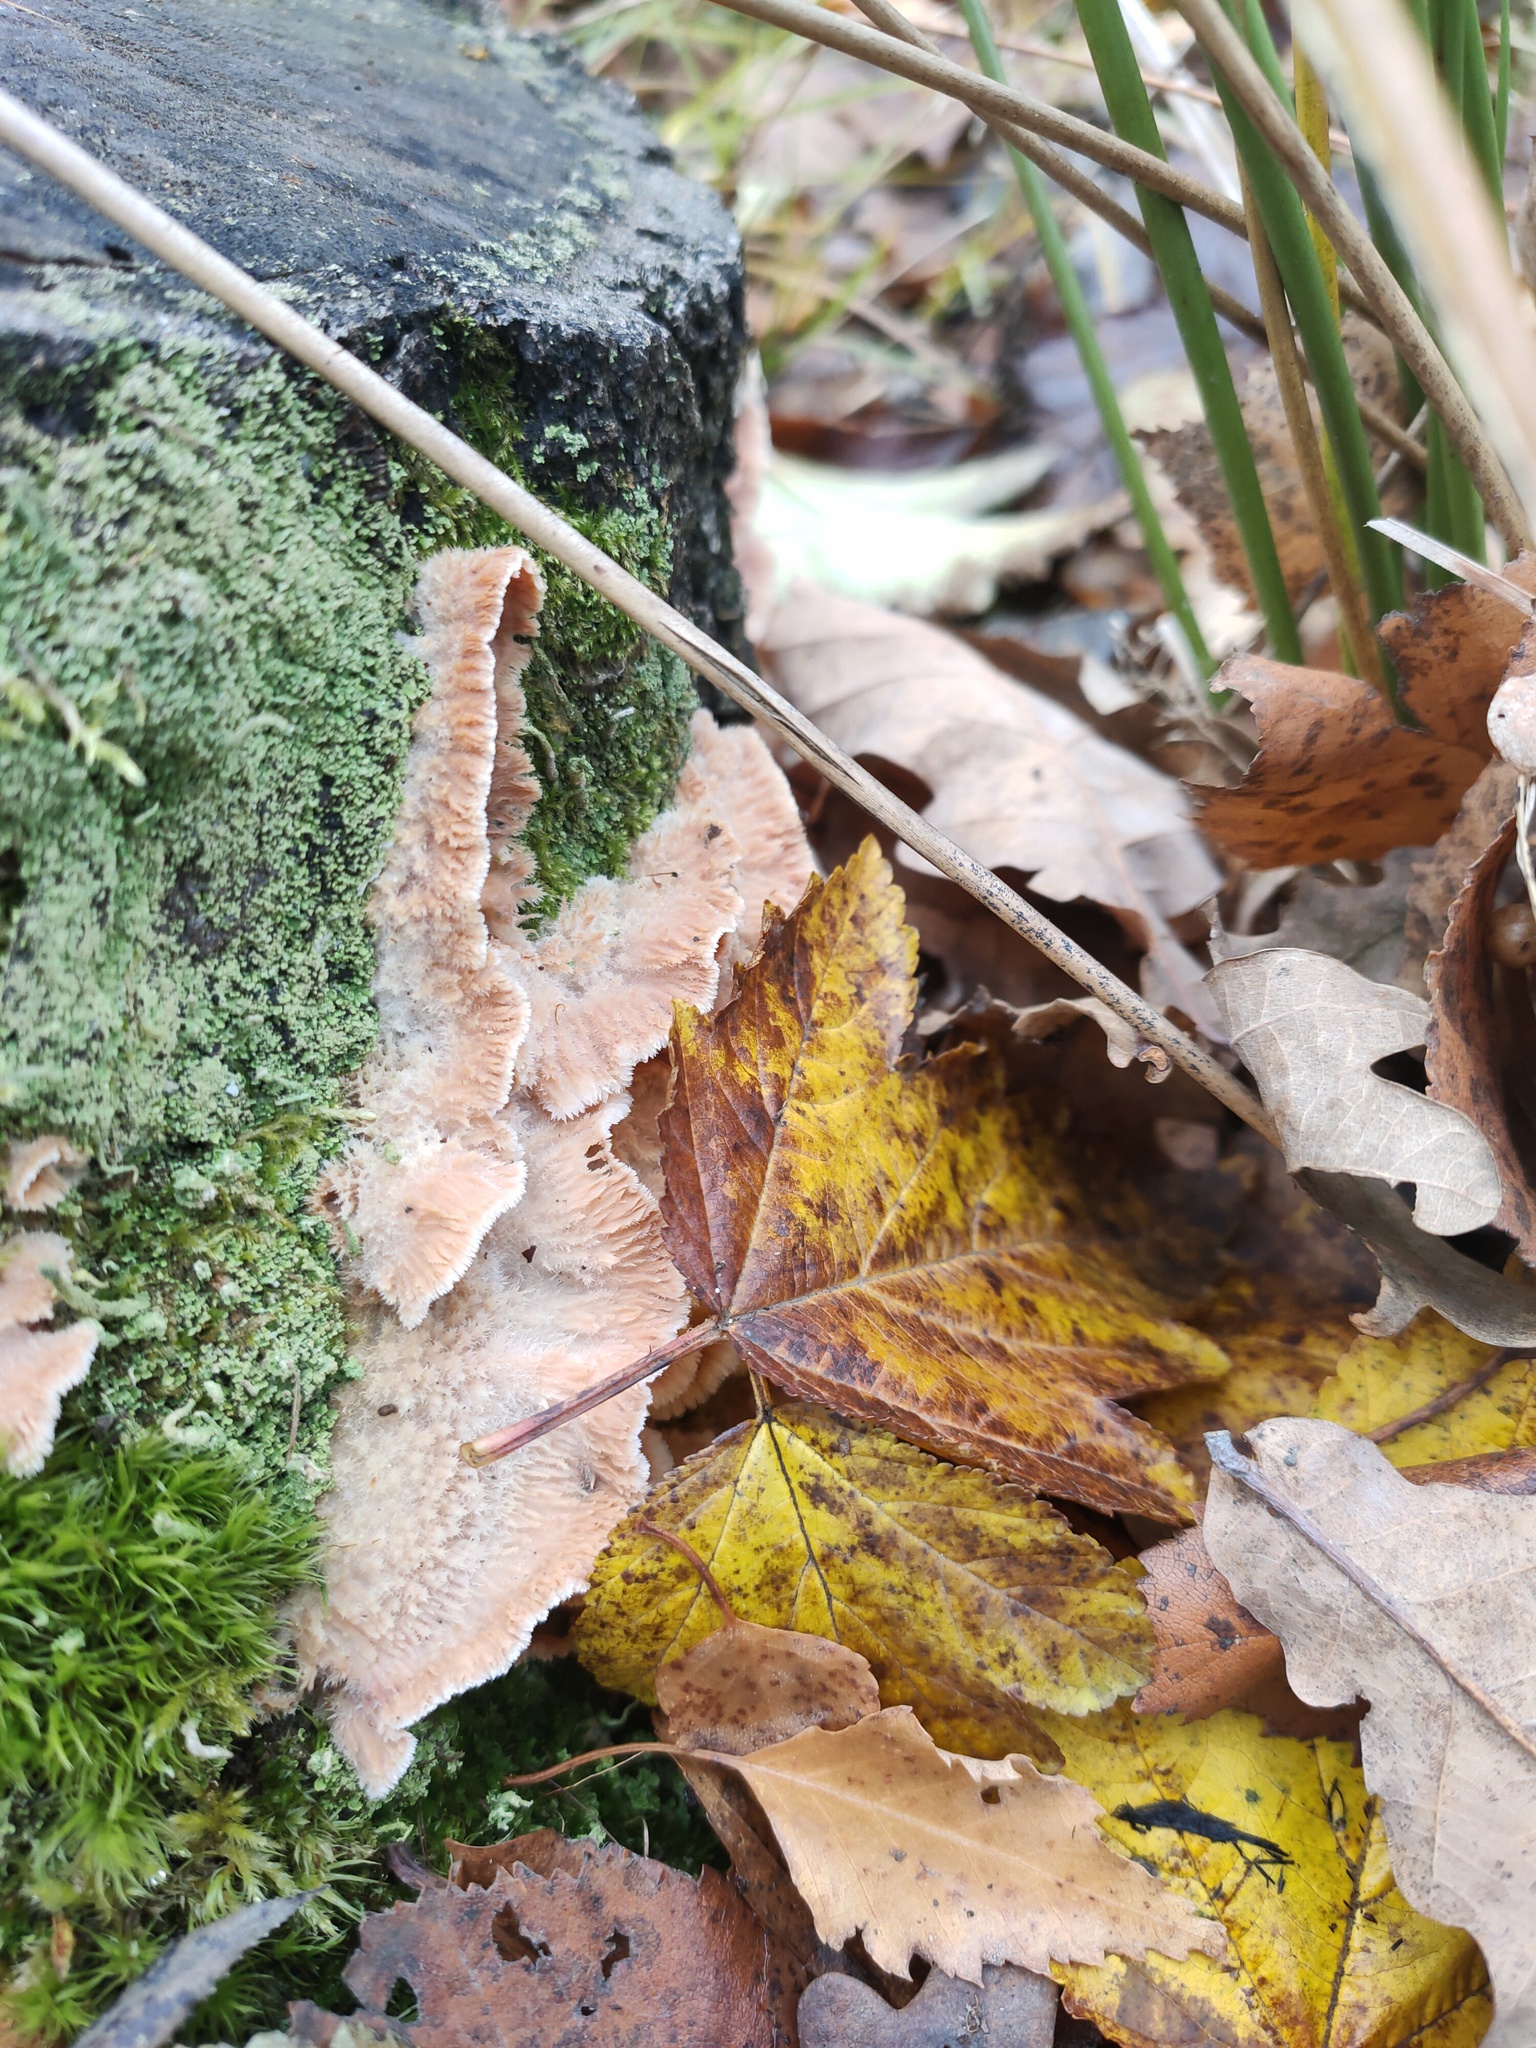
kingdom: Fungi
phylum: Basidiomycota
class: Agaricomycetes
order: Polyporales
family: Meruliaceae
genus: Phlebia
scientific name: Phlebia tremellosa
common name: Jelly rot
